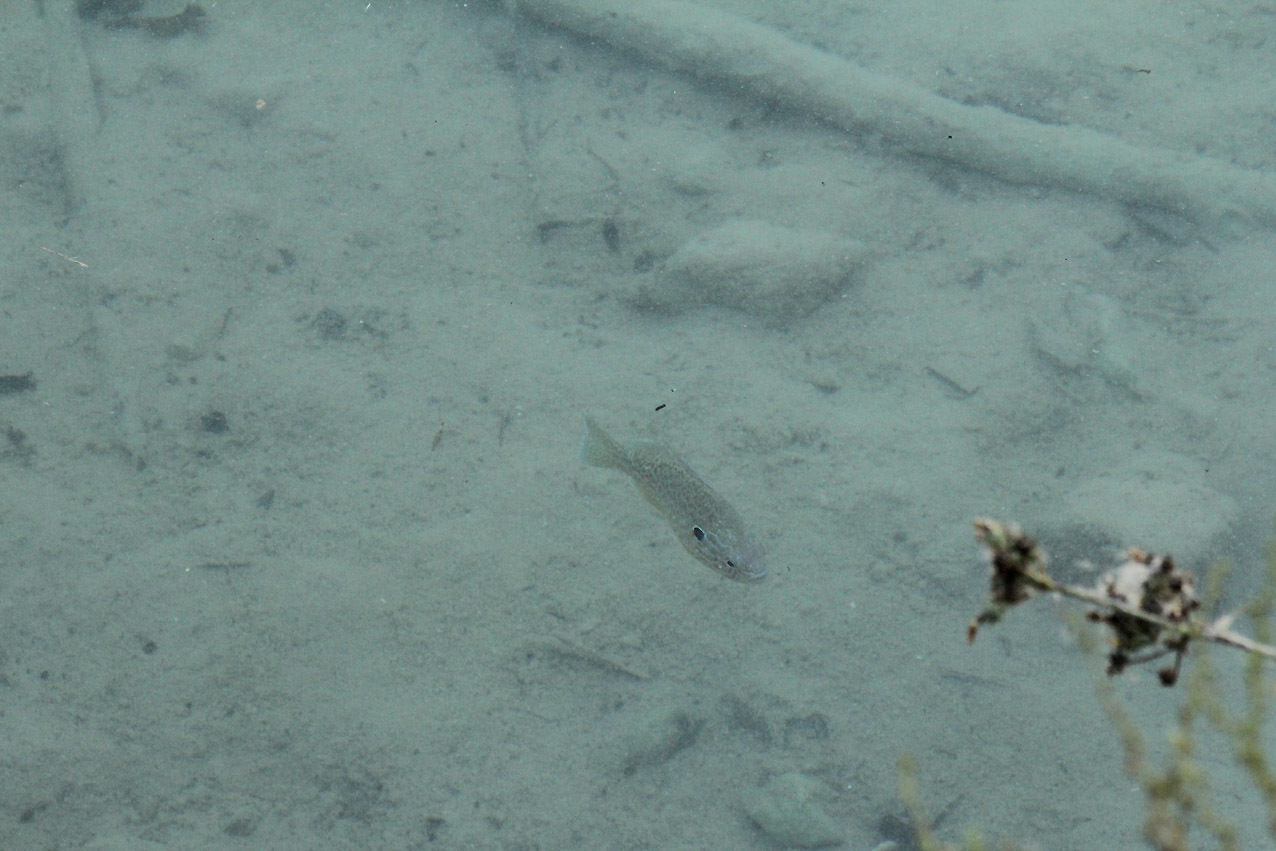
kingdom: Animalia
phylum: Chordata
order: Perciformes
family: Centrarchidae
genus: Lepomis
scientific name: Lepomis gibbosus
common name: Pumpkinseed
